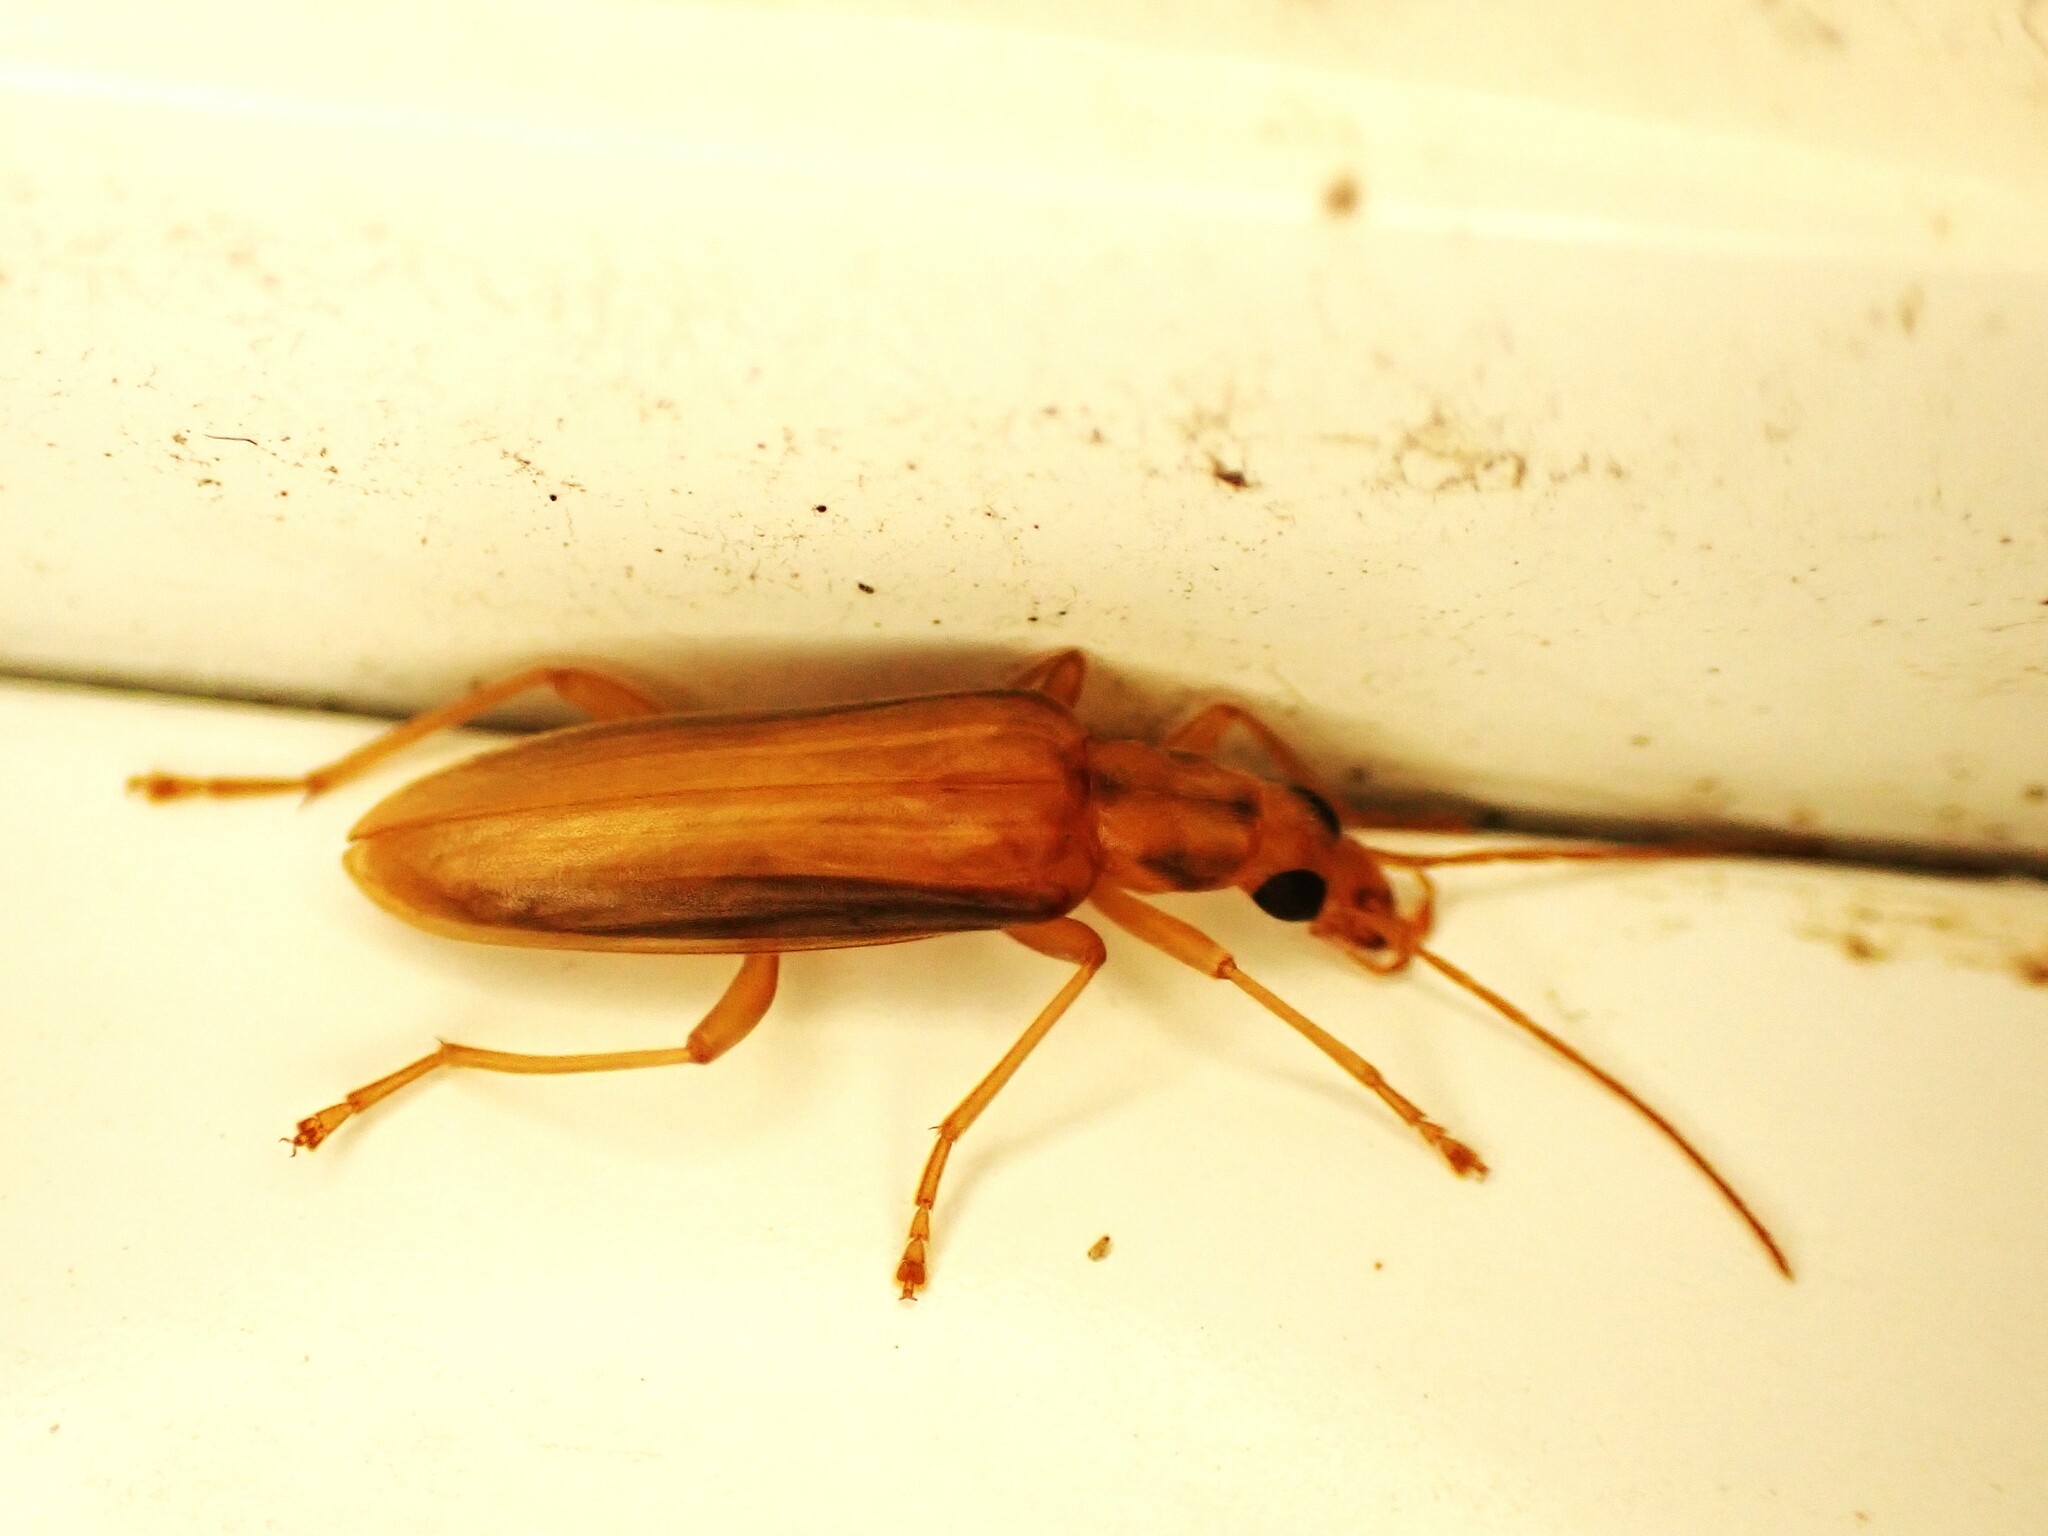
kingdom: Animalia
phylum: Arthropoda
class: Insecta
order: Coleoptera
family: Oedemeridae
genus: Thelyphassa
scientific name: Thelyphassa
